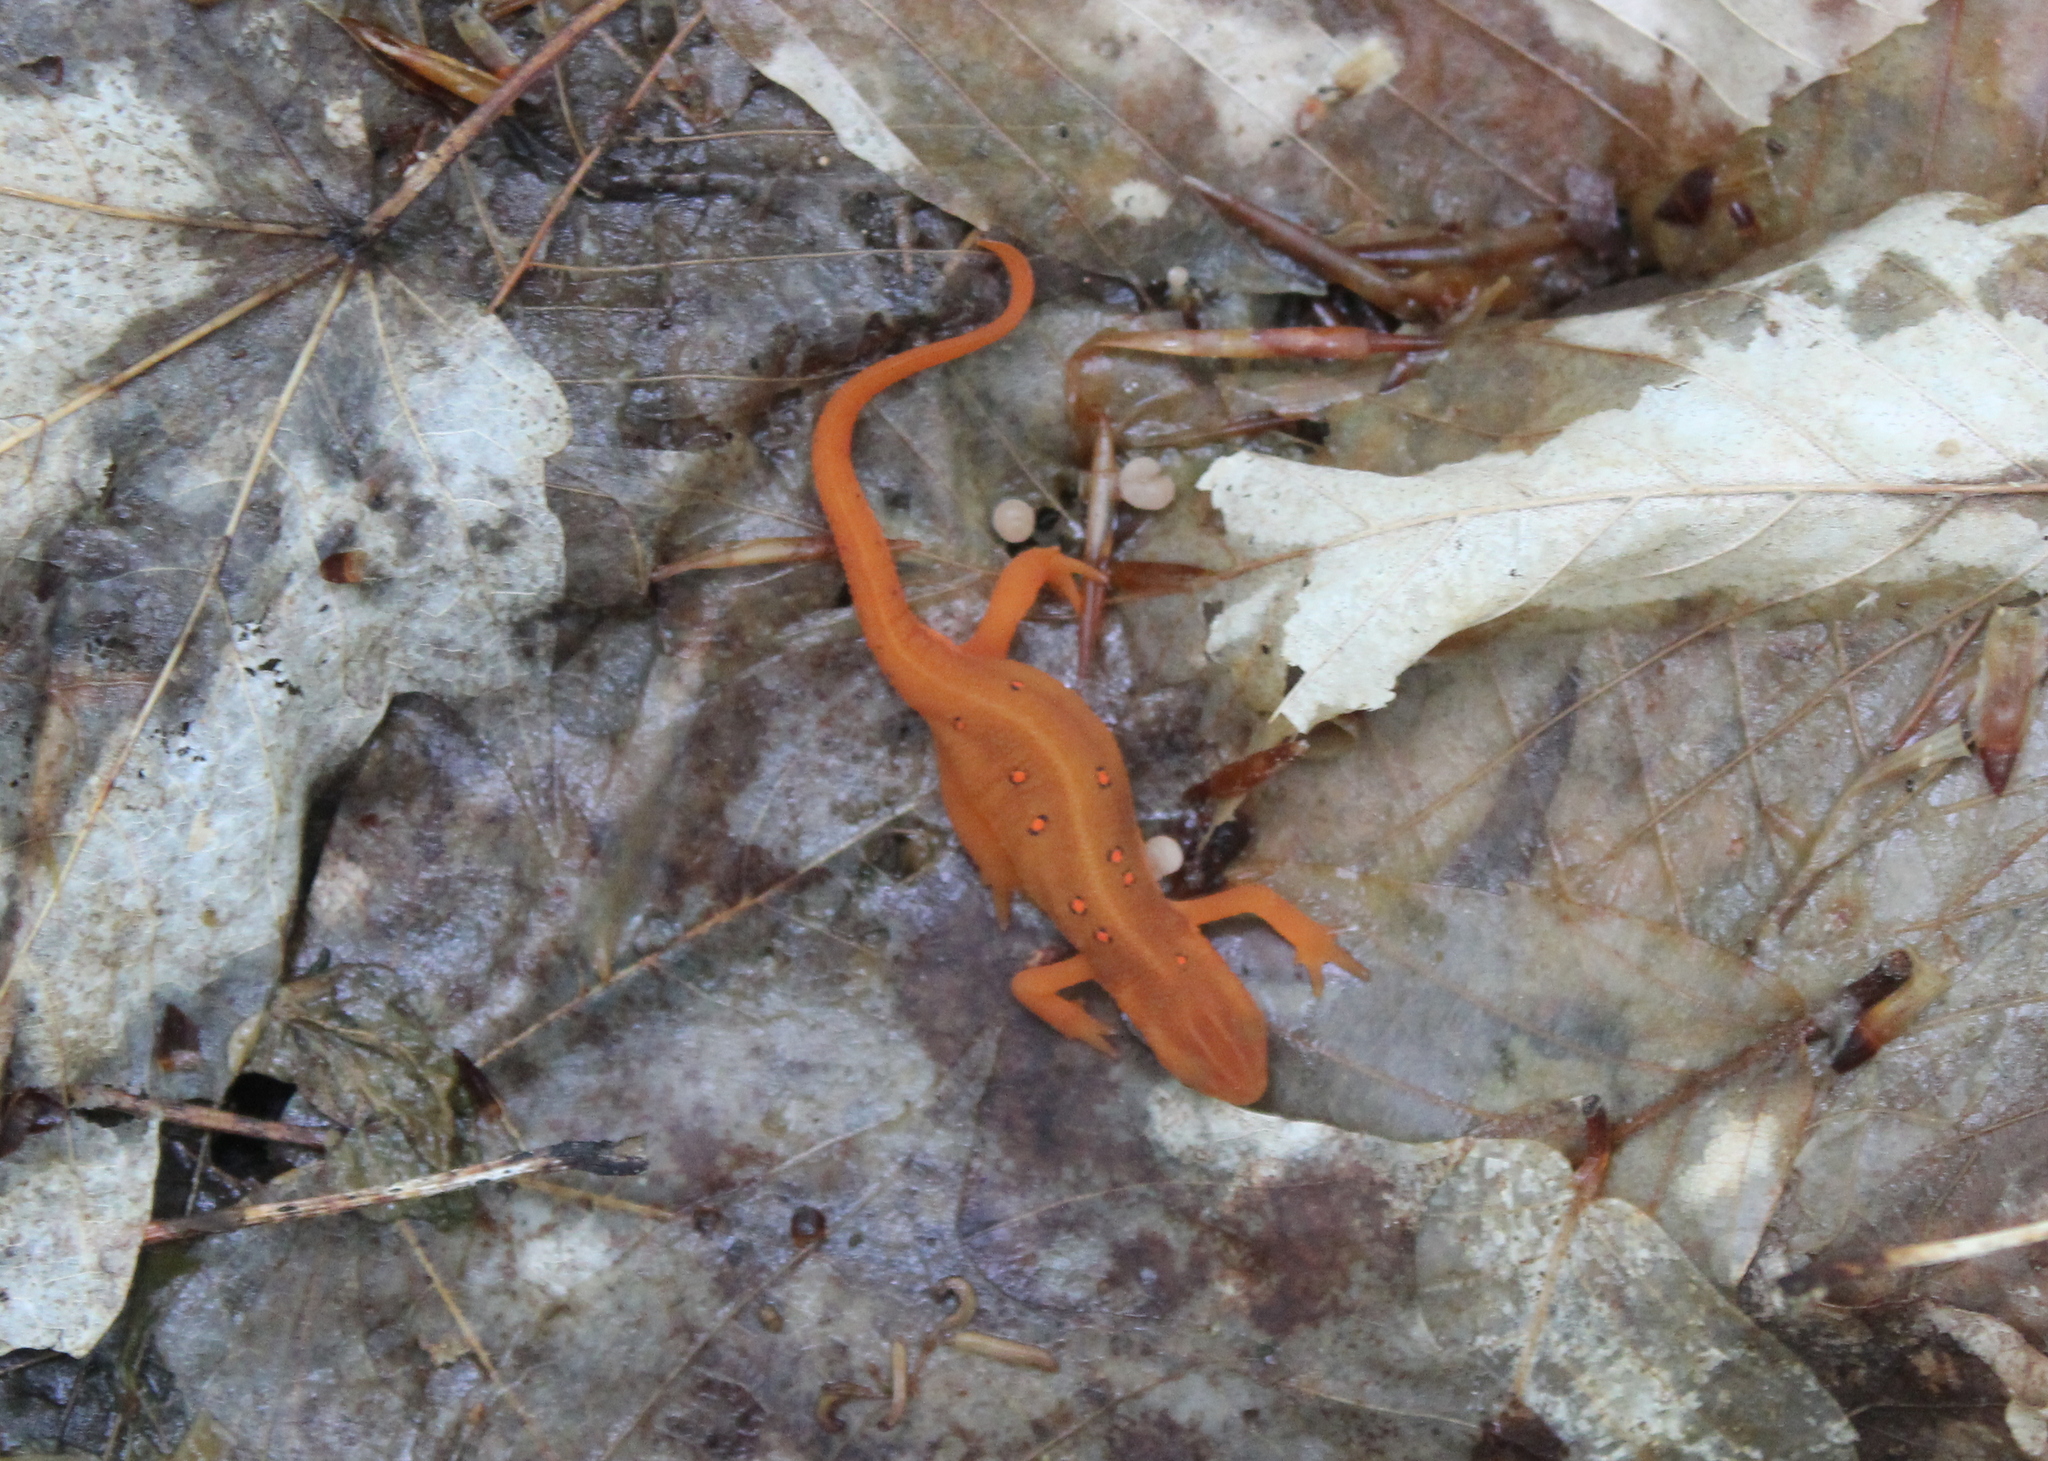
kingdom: Animalia
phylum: Chordata
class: Amphibia
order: Caudata
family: Salamandridae
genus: Notophthalmus
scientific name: Notophthalmus viridescens
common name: Eastern newt
